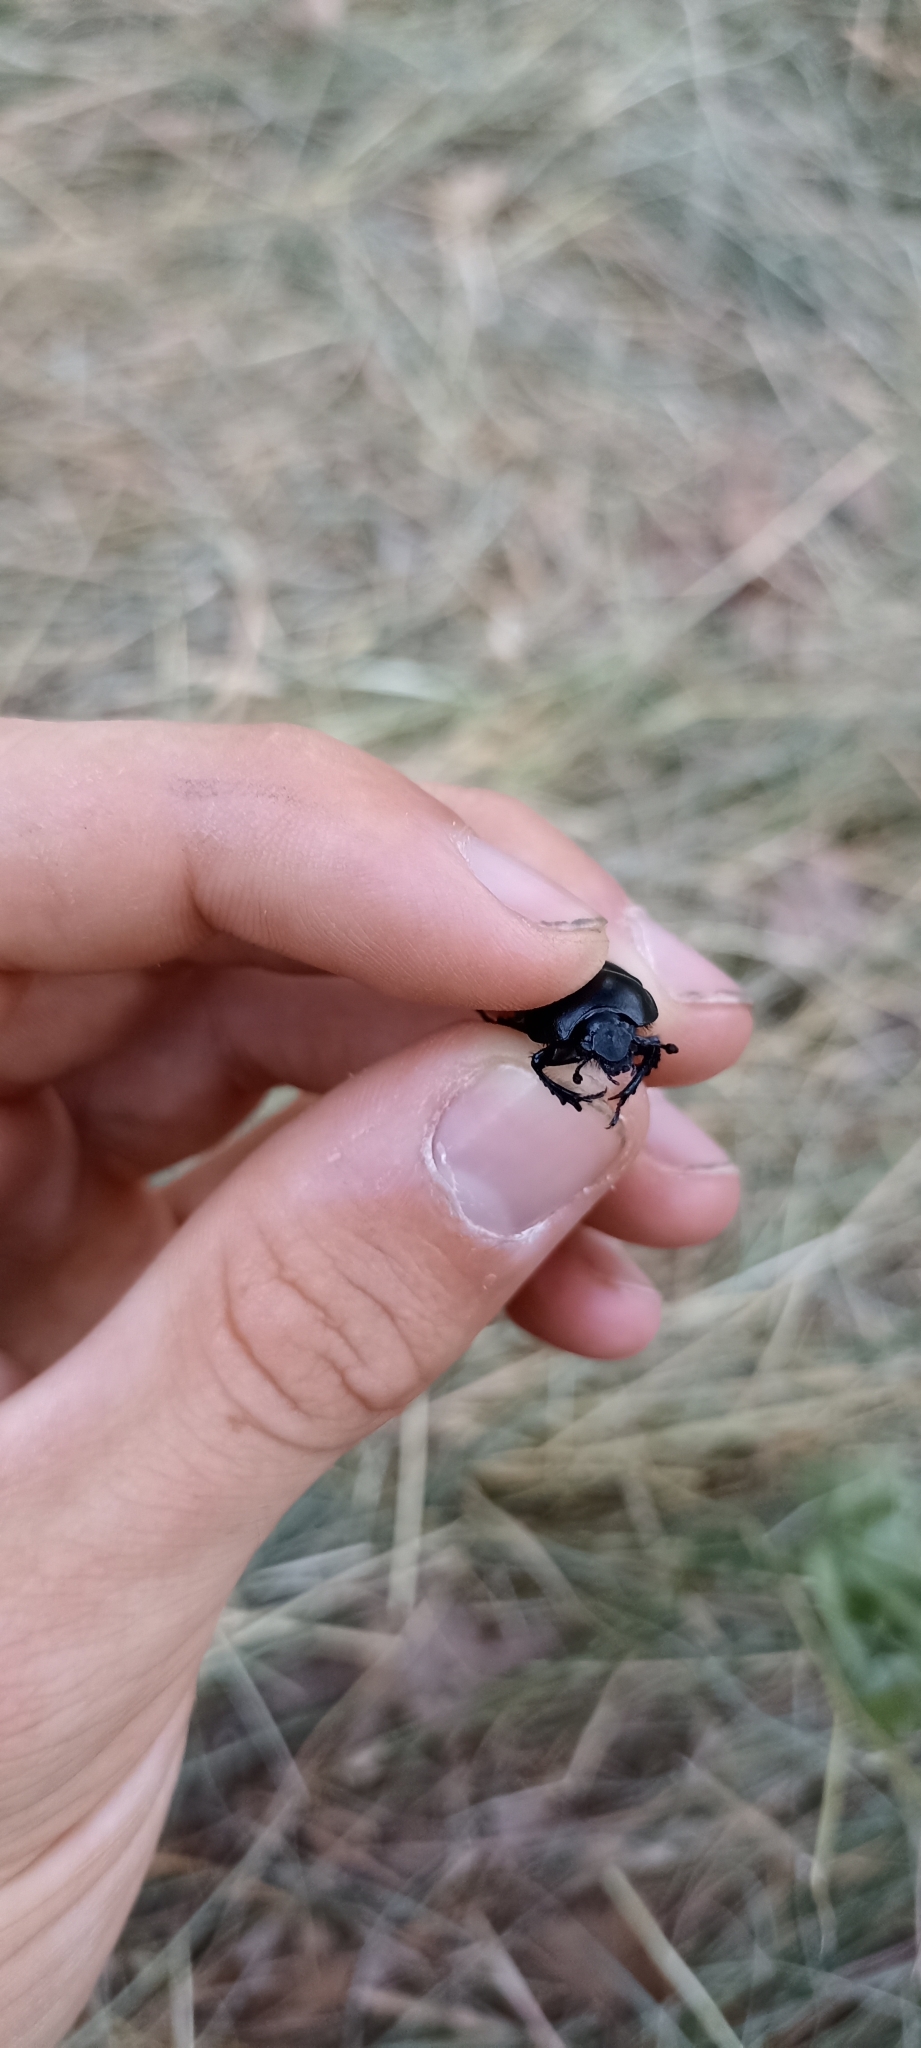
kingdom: Animalia
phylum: Arthropoda
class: Insecta
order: Coleoptera
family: Geotrupidae
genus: Anoplotrupes
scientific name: Anoplotrupes stercorosus
